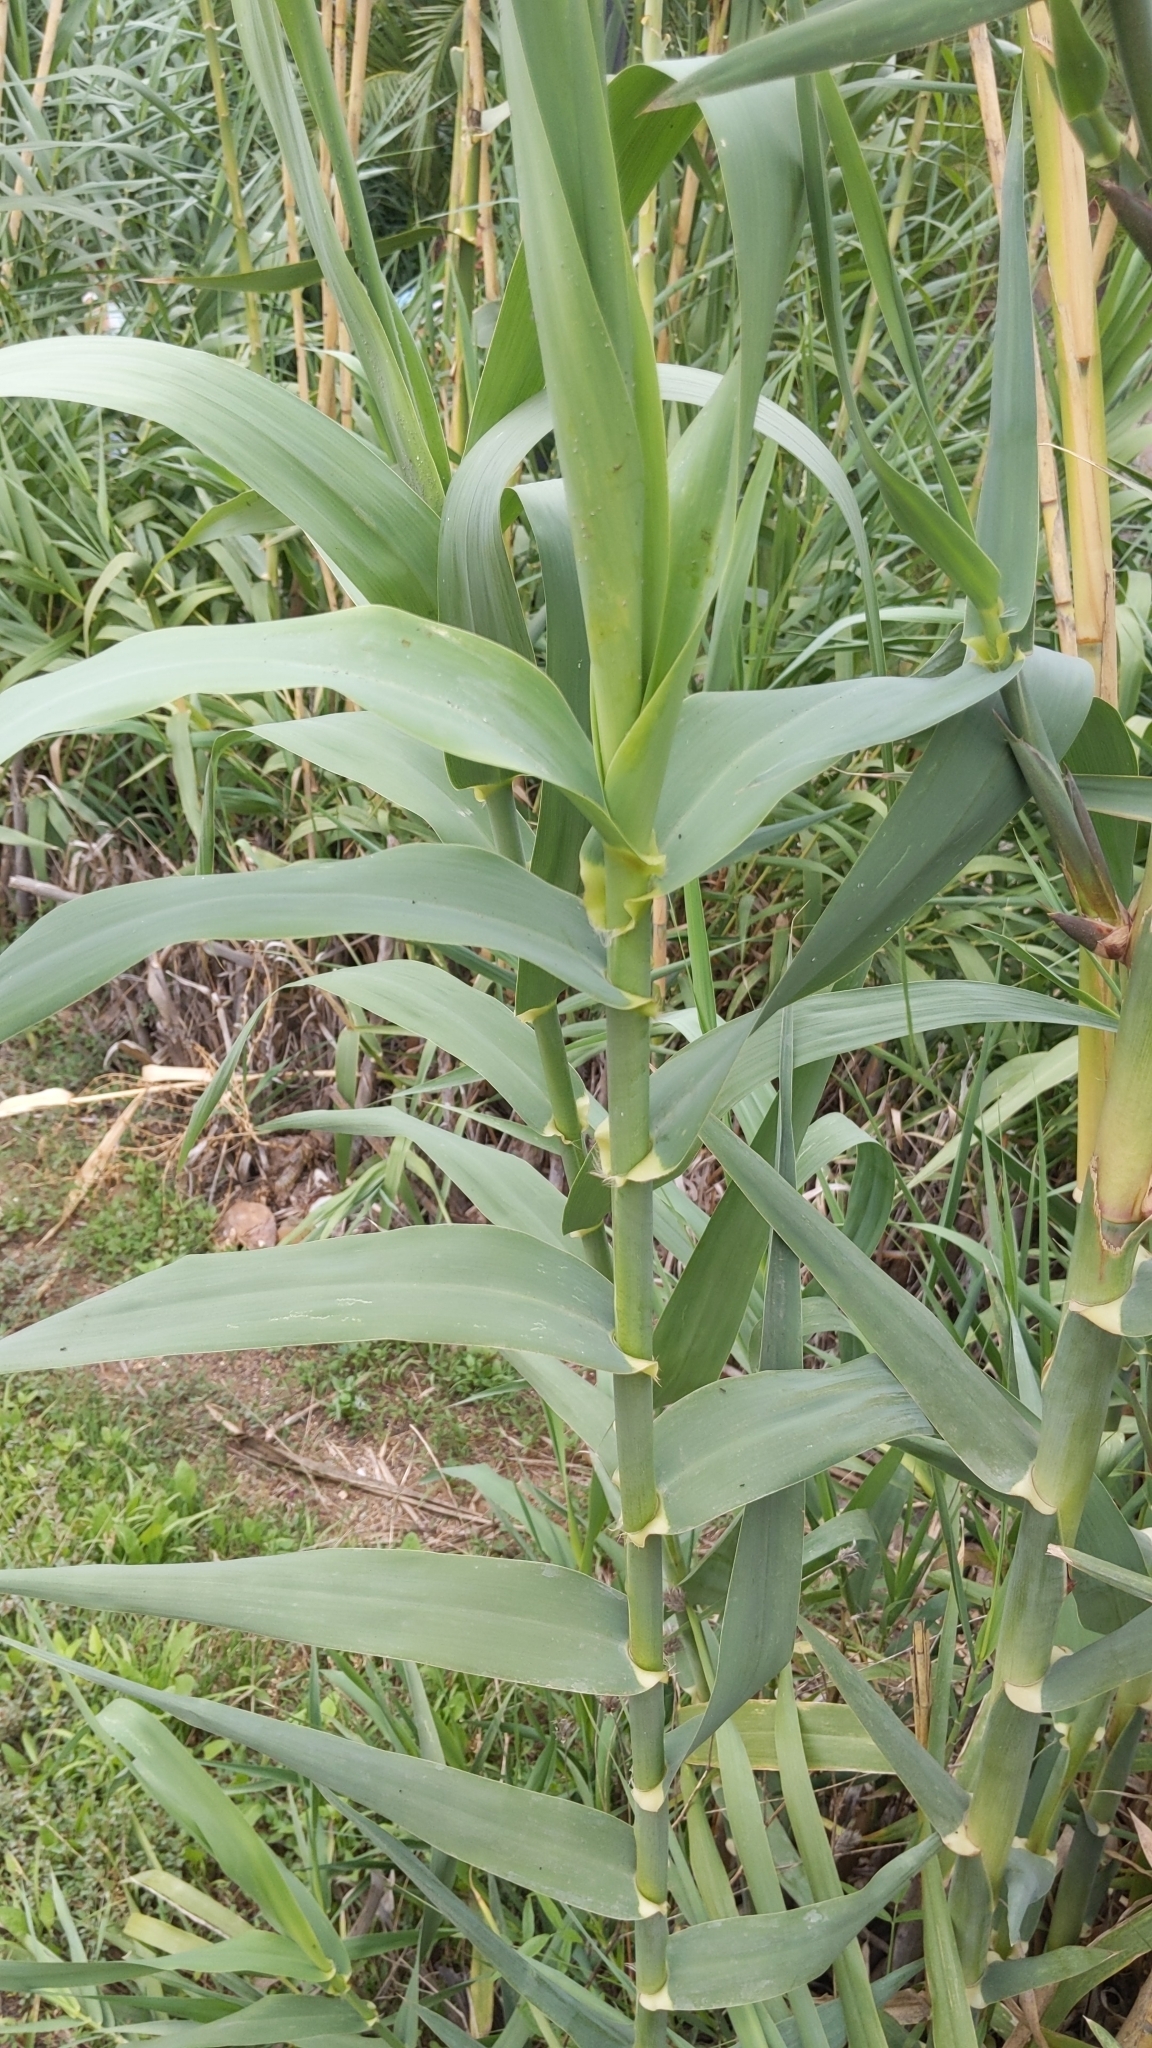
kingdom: Plantae
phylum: Tracheophyta
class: Liliopsida
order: Poales
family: Poaceae
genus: Arundo
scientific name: Arundo donax
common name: Giant reed
